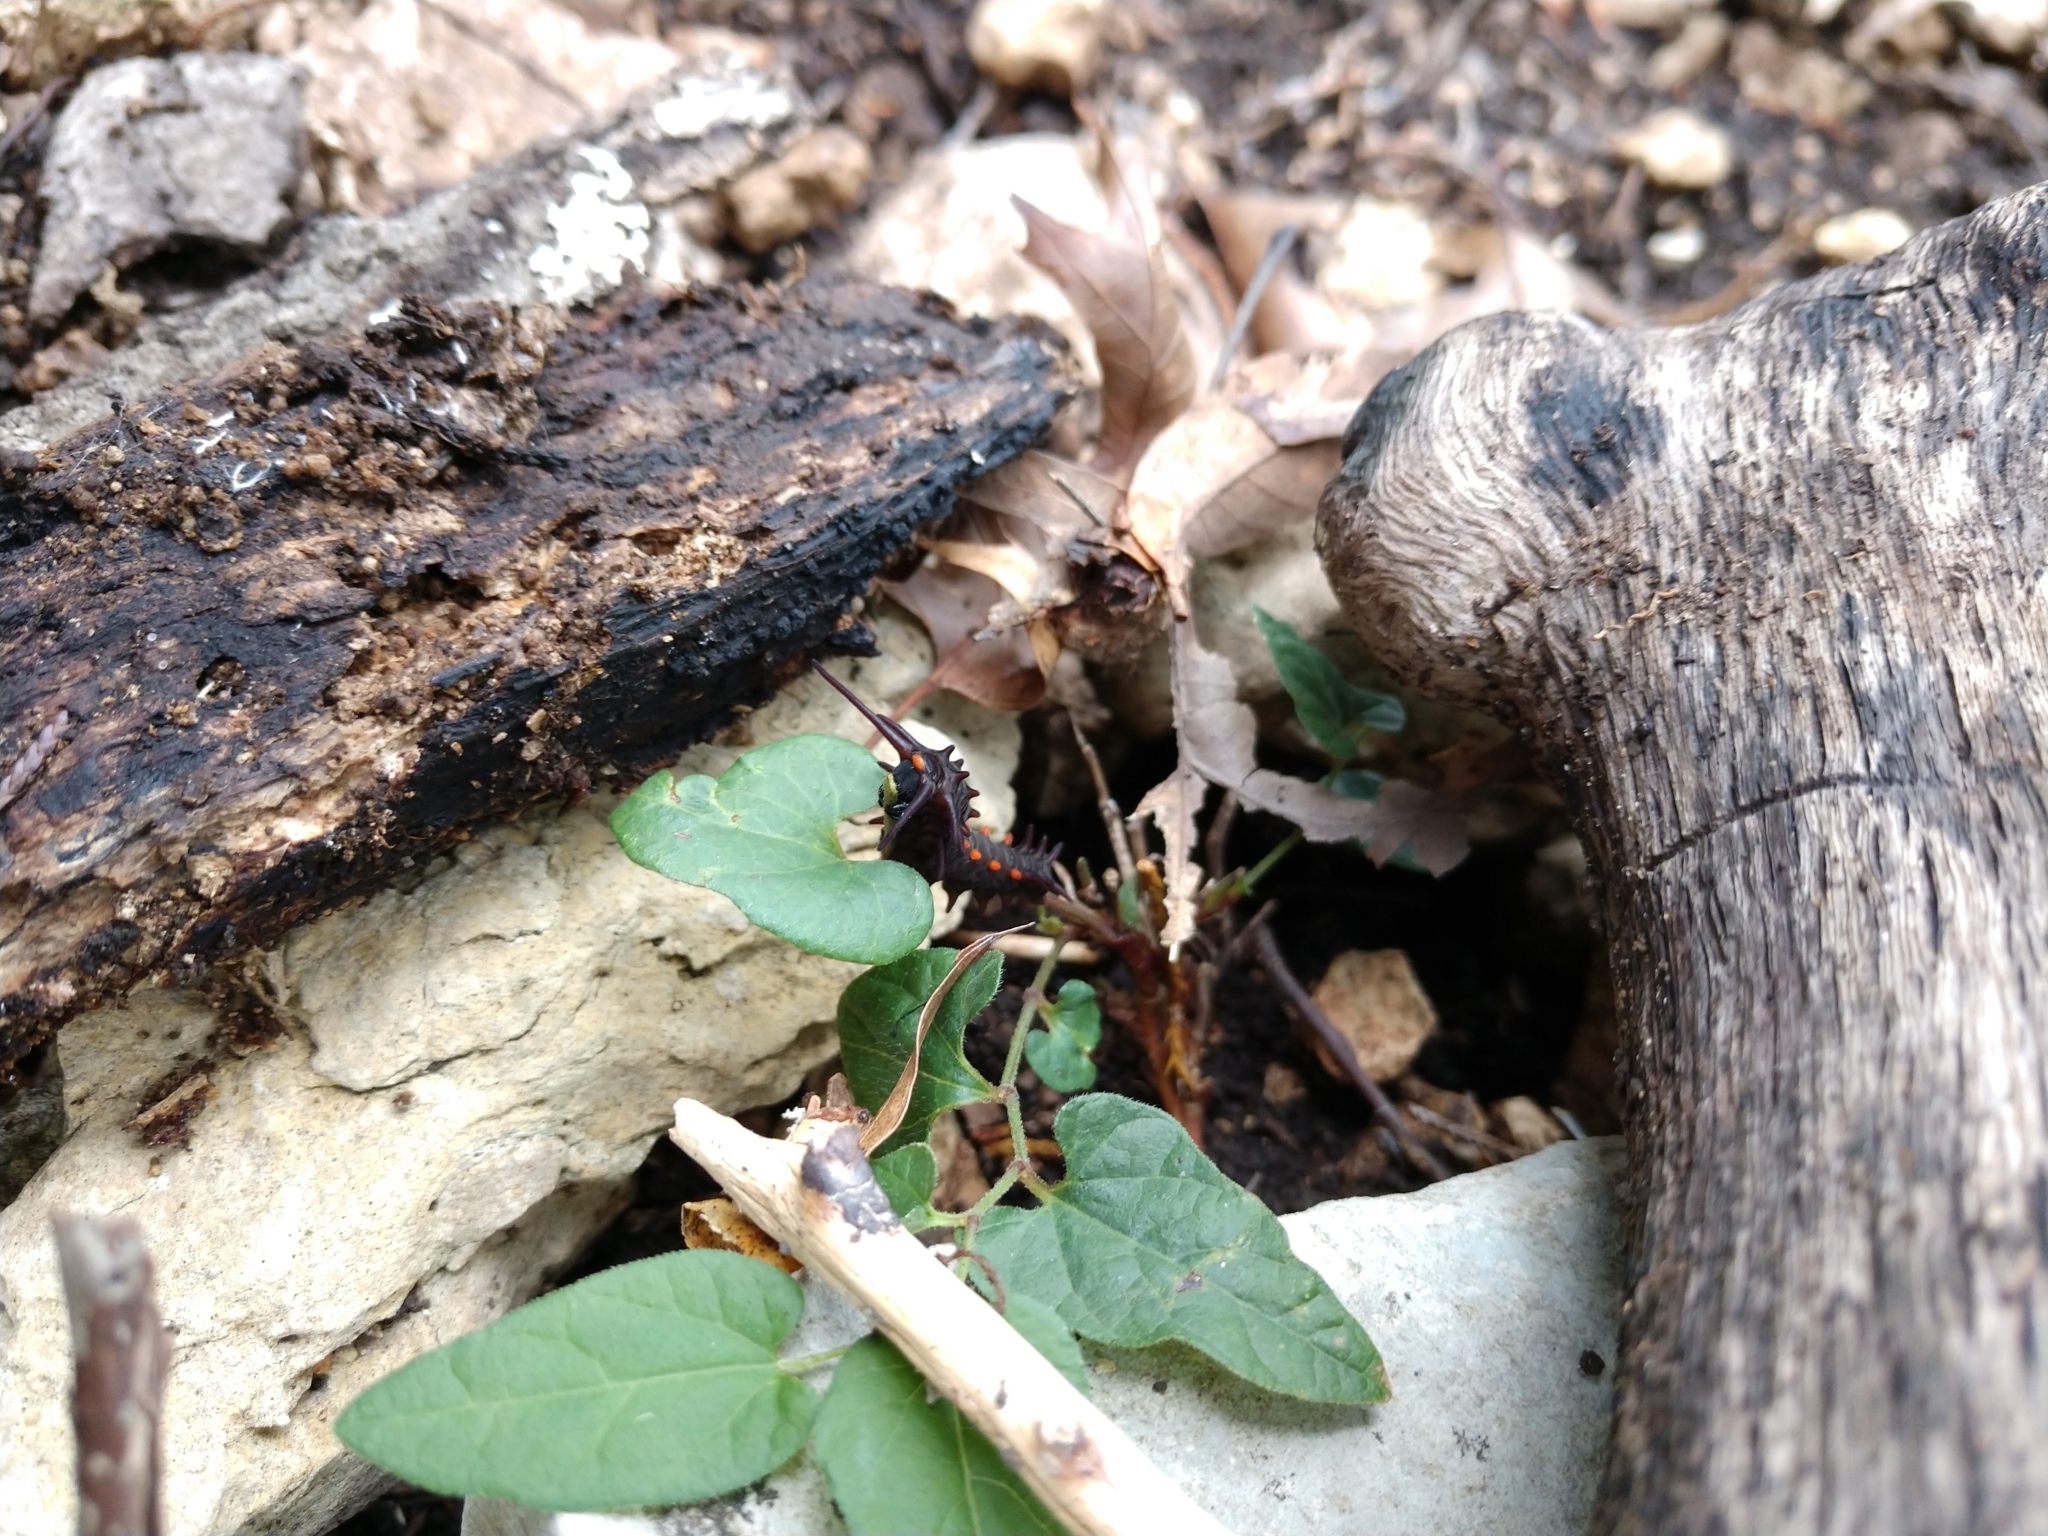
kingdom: Animalia
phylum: Arthropoda
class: Insecta
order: Lepidoptera
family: Papilionidae
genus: Battus
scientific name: Battus philenor
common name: Pipevine swallowtail
